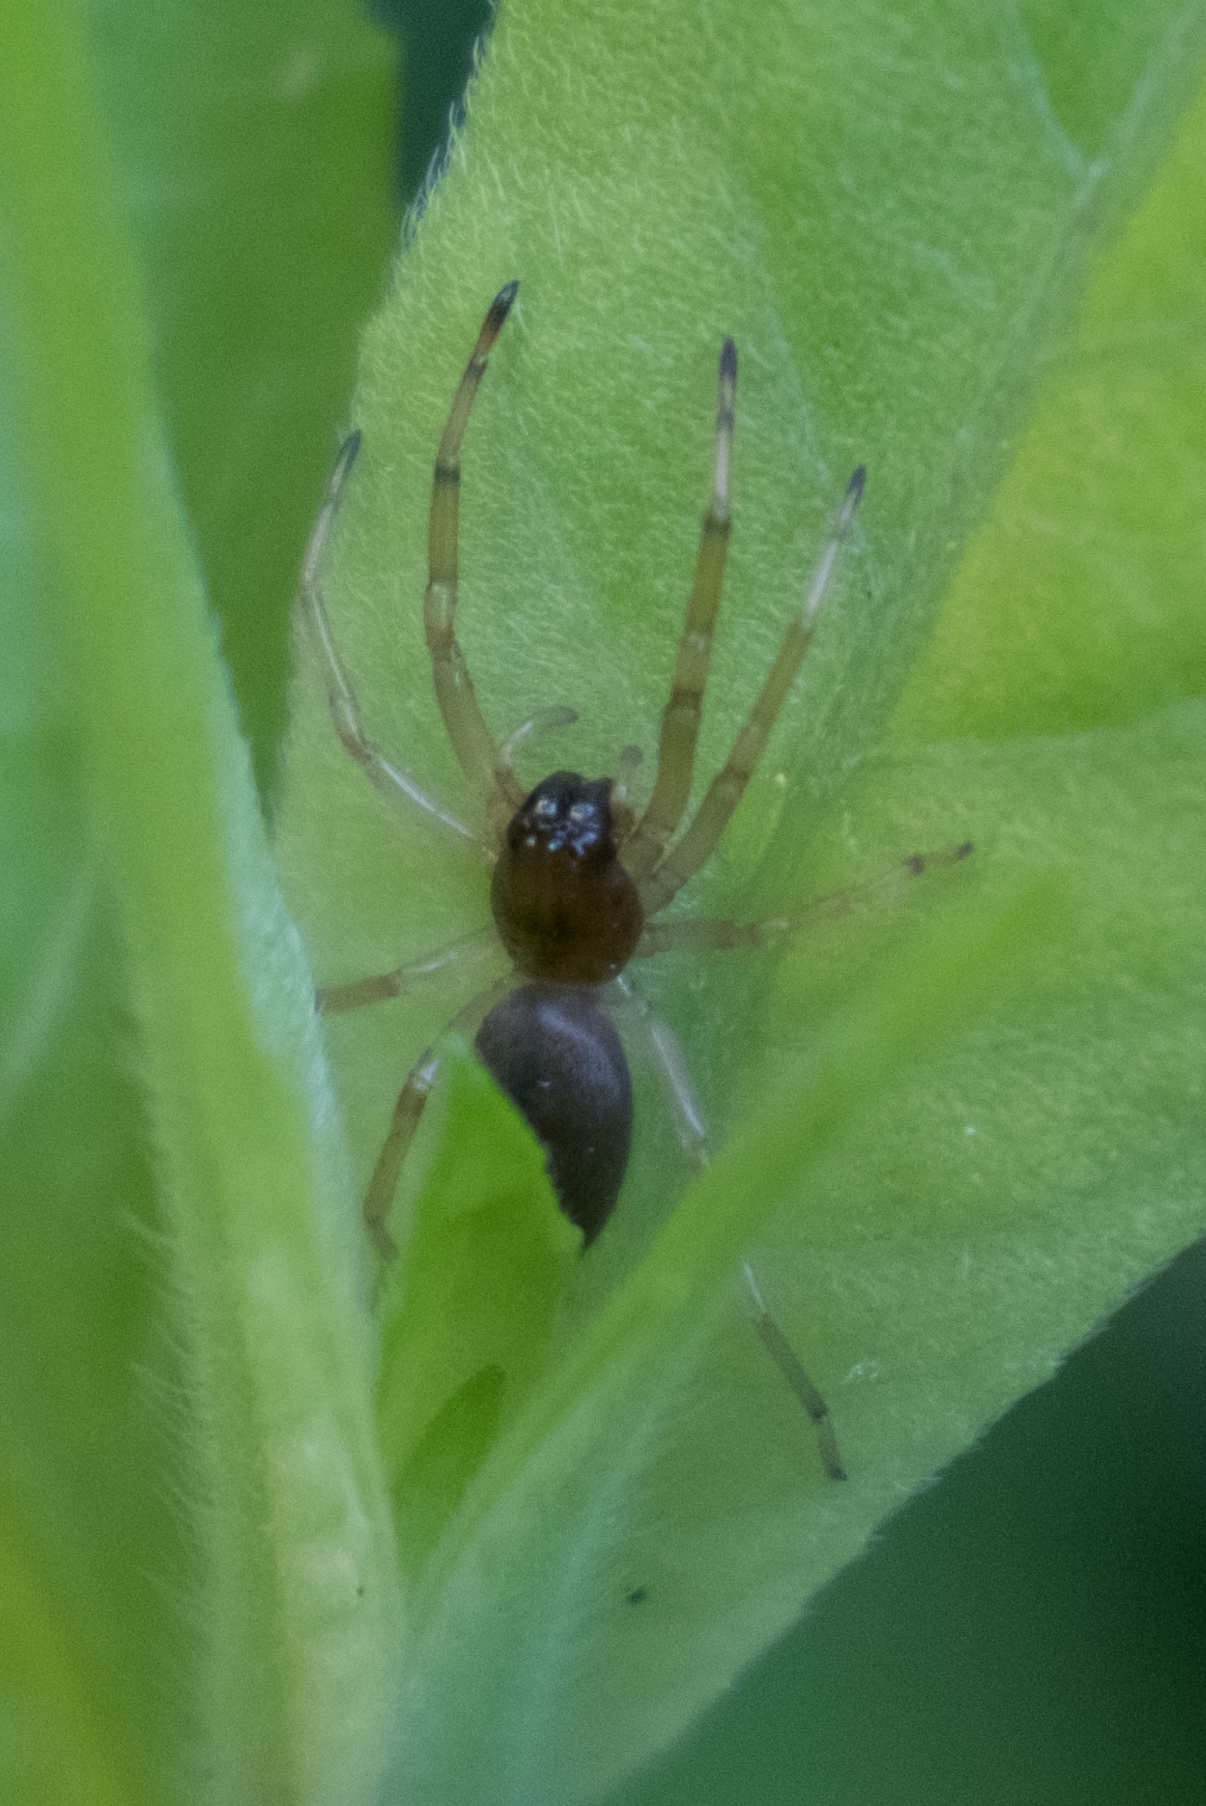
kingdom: Animalia
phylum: Arthropoda
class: Arachnida
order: Araneae
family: Trachelidae
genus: Trachelas
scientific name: Trachelas tranquillus
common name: Broad-faced sac spider
